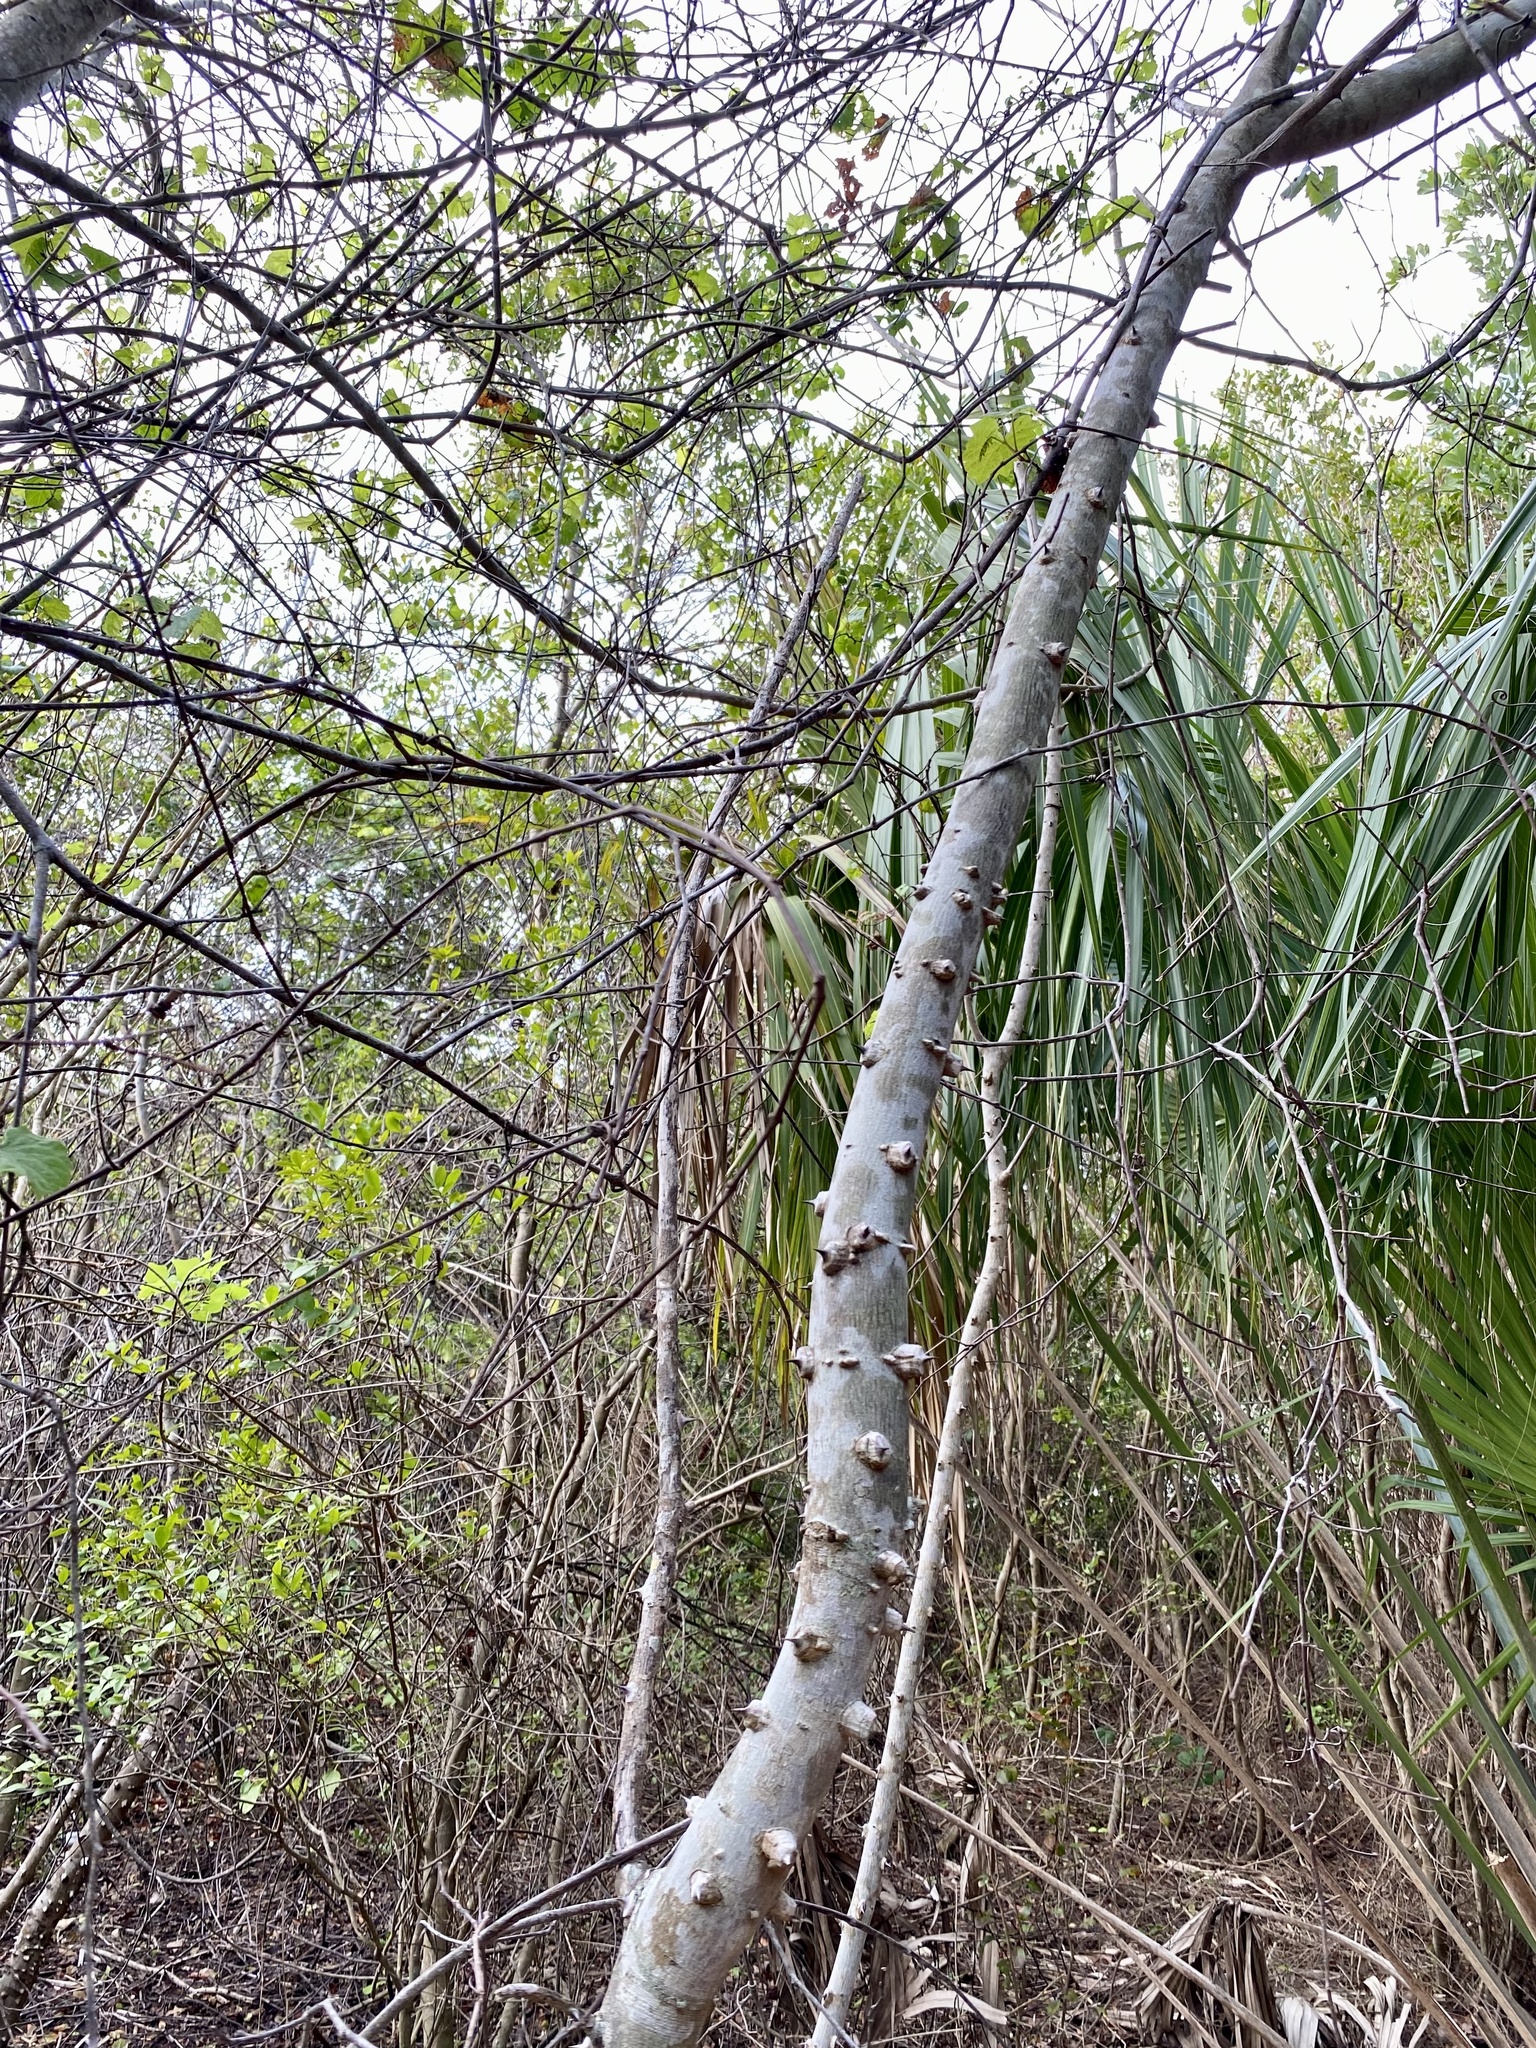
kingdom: Plantae
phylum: Tracheophyta
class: Magnoliopsida
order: Sapindales
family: Rutaceae
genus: Zanthoxylum
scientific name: Zanthoxylum clava-herculis
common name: Hercules'-club
